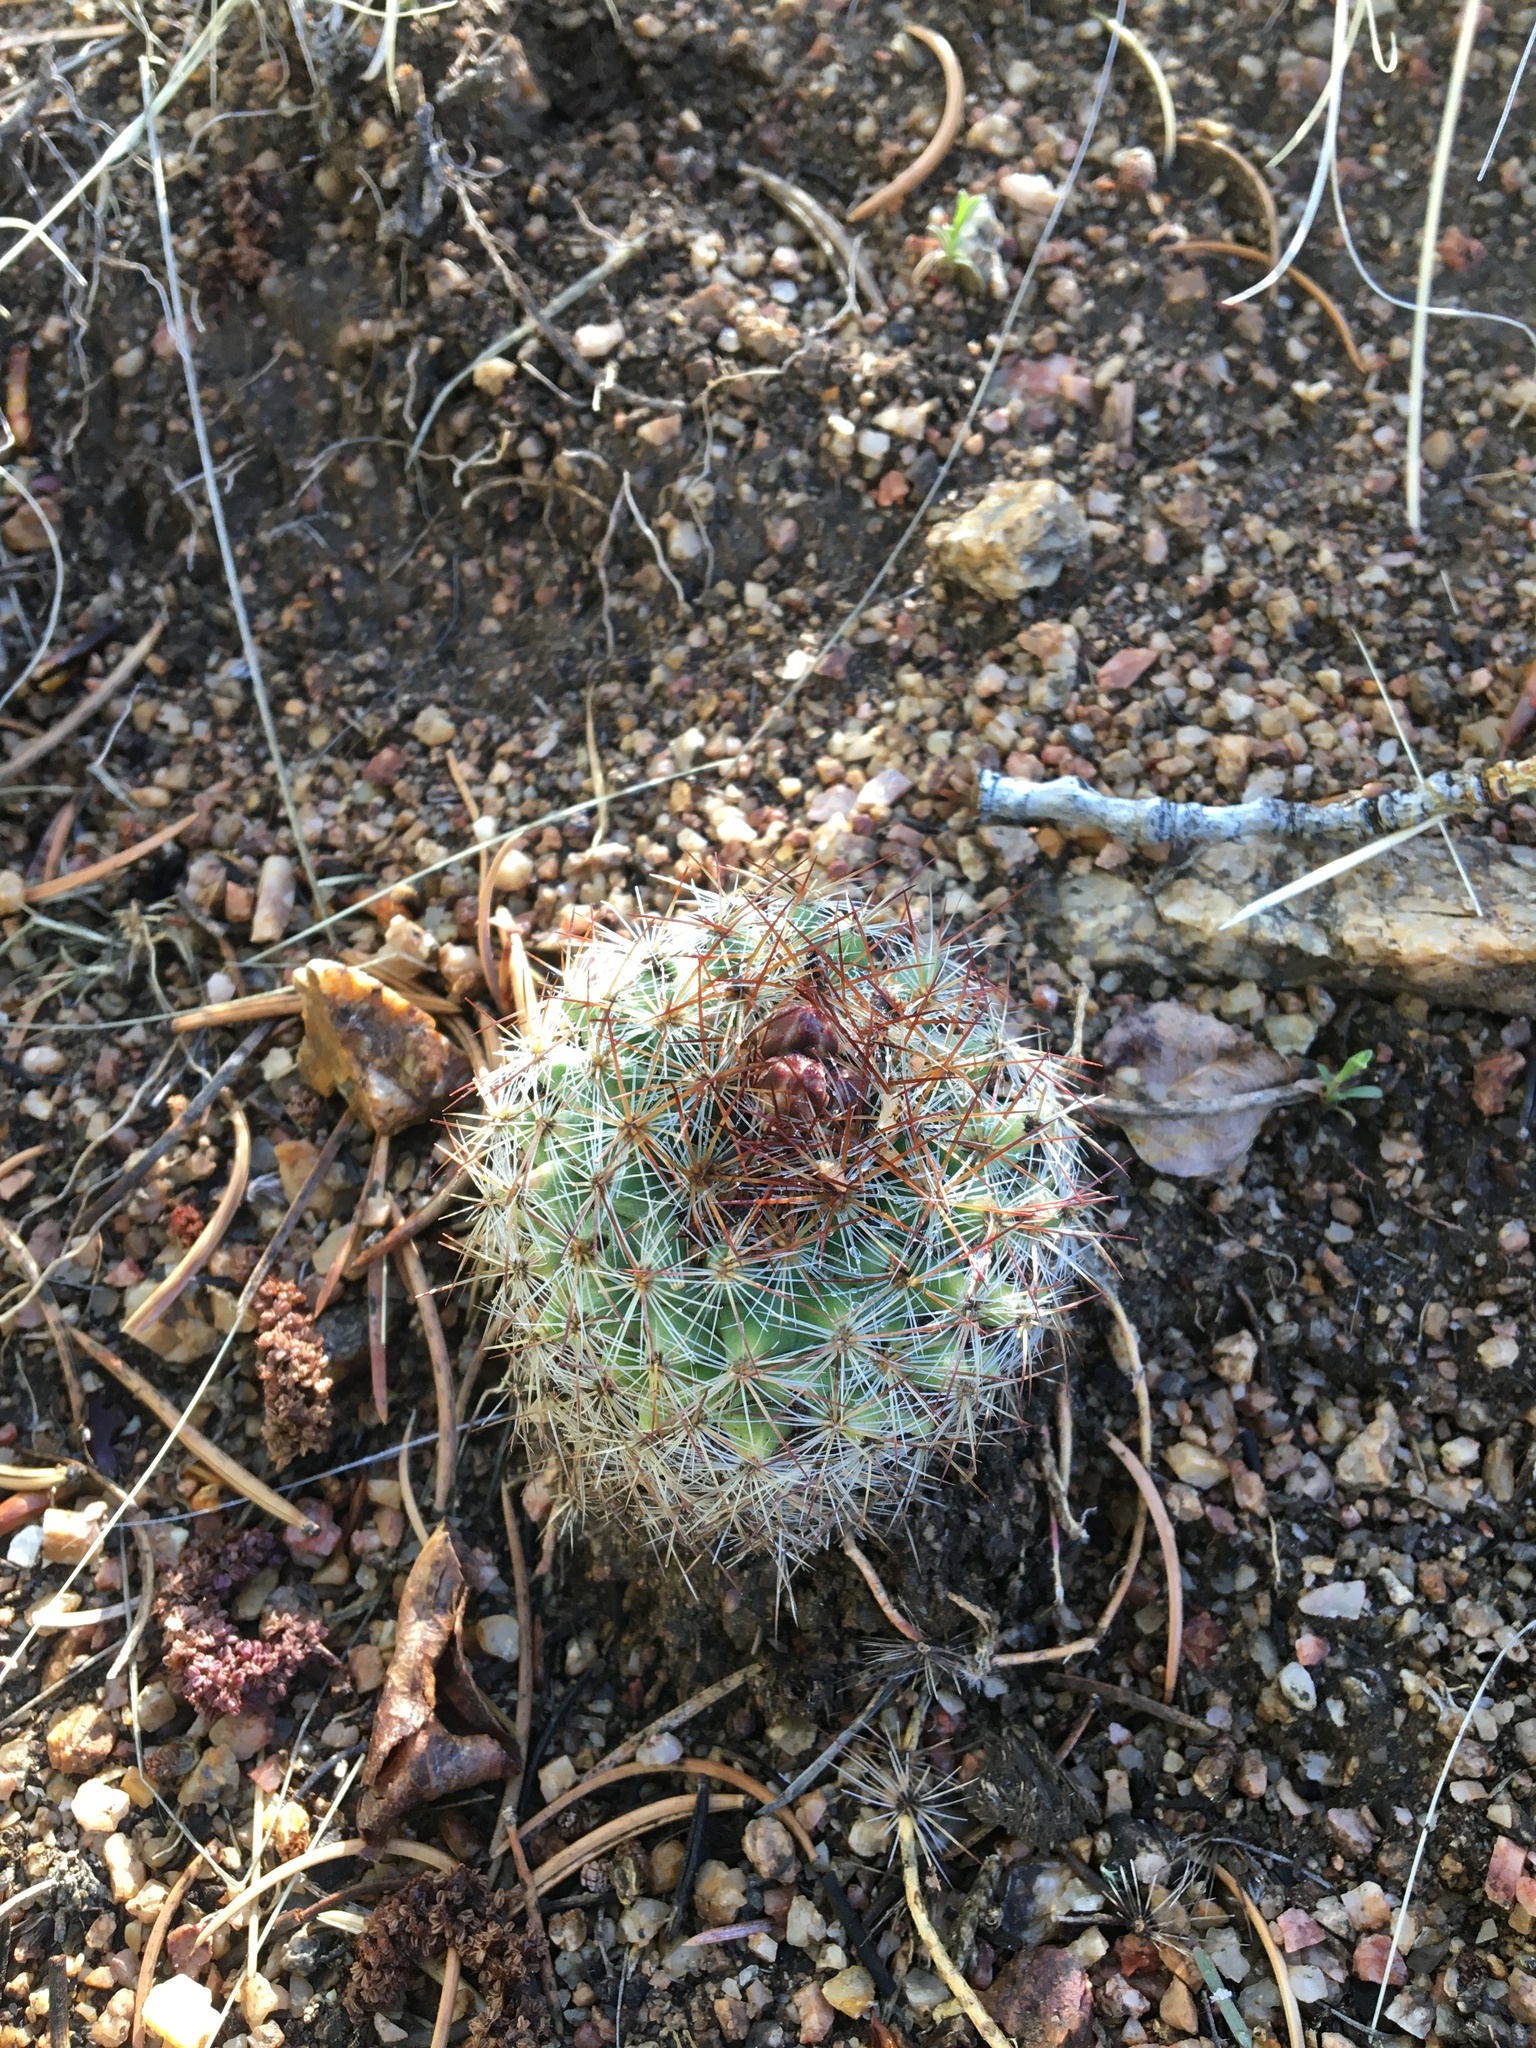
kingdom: Plantae
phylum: Tracheophyta
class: Magnoliopsida
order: Caryophyllales
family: Cactaceae
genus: Pediocactus
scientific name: Pediocactus simpsonii
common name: Simpson's hedgehog cactus
